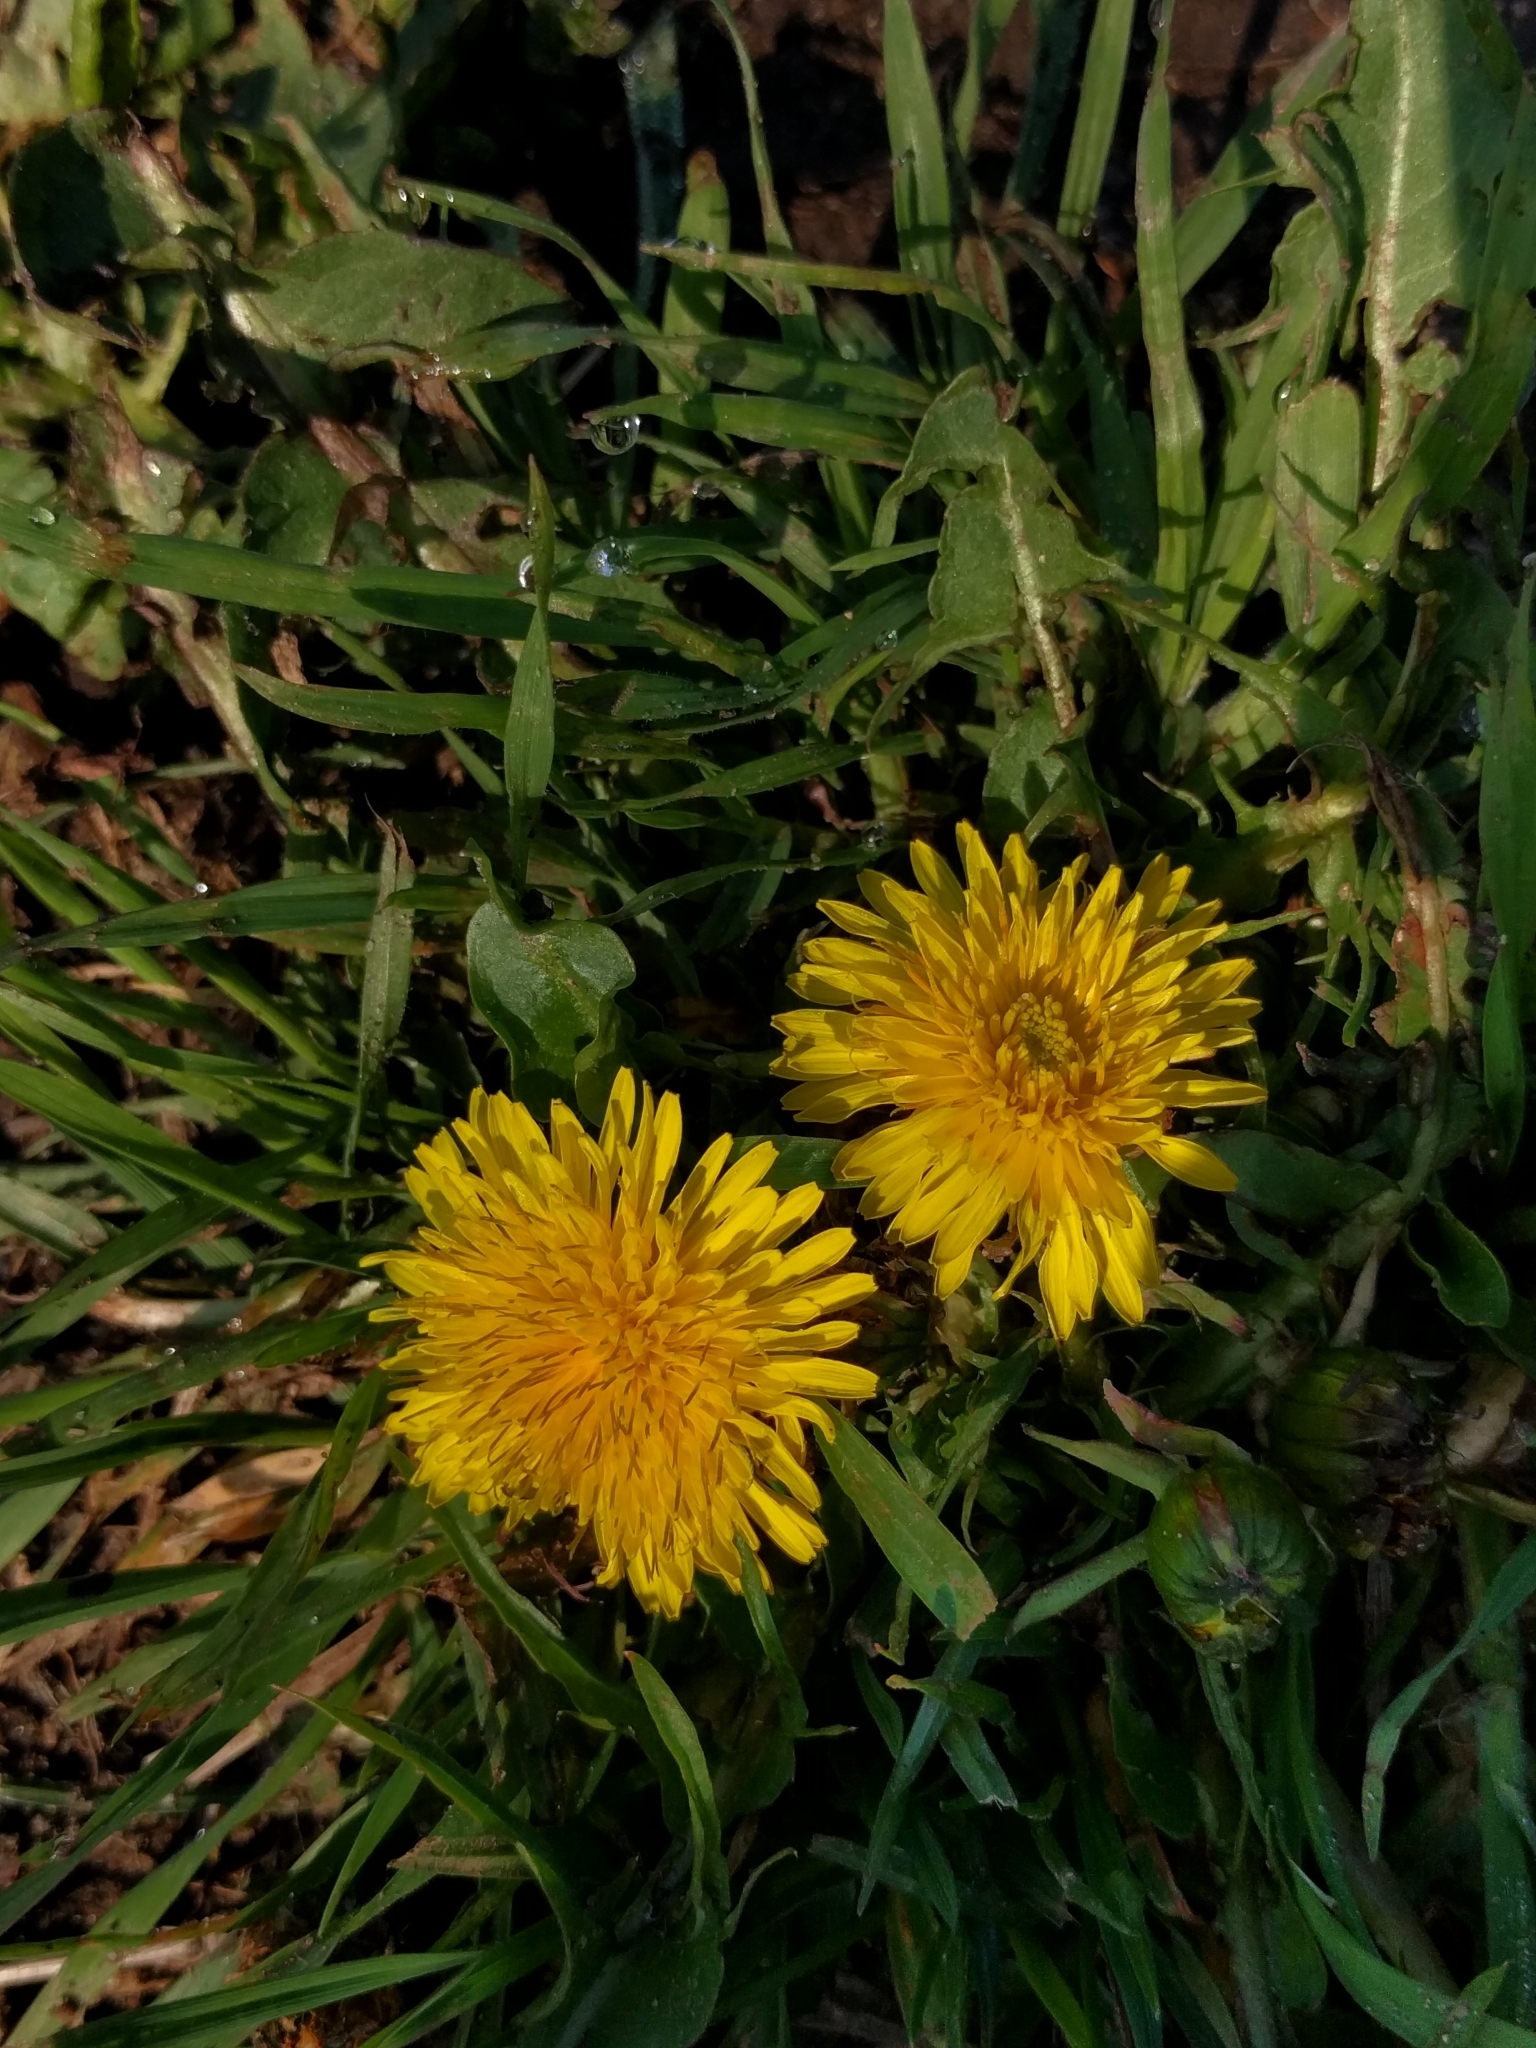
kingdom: Plantae
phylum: Tracheophyta
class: Magnoliopsida
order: Asterales
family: Asteraceae
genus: Taraxacum
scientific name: Taraxacum officinale
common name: Common dandelion
